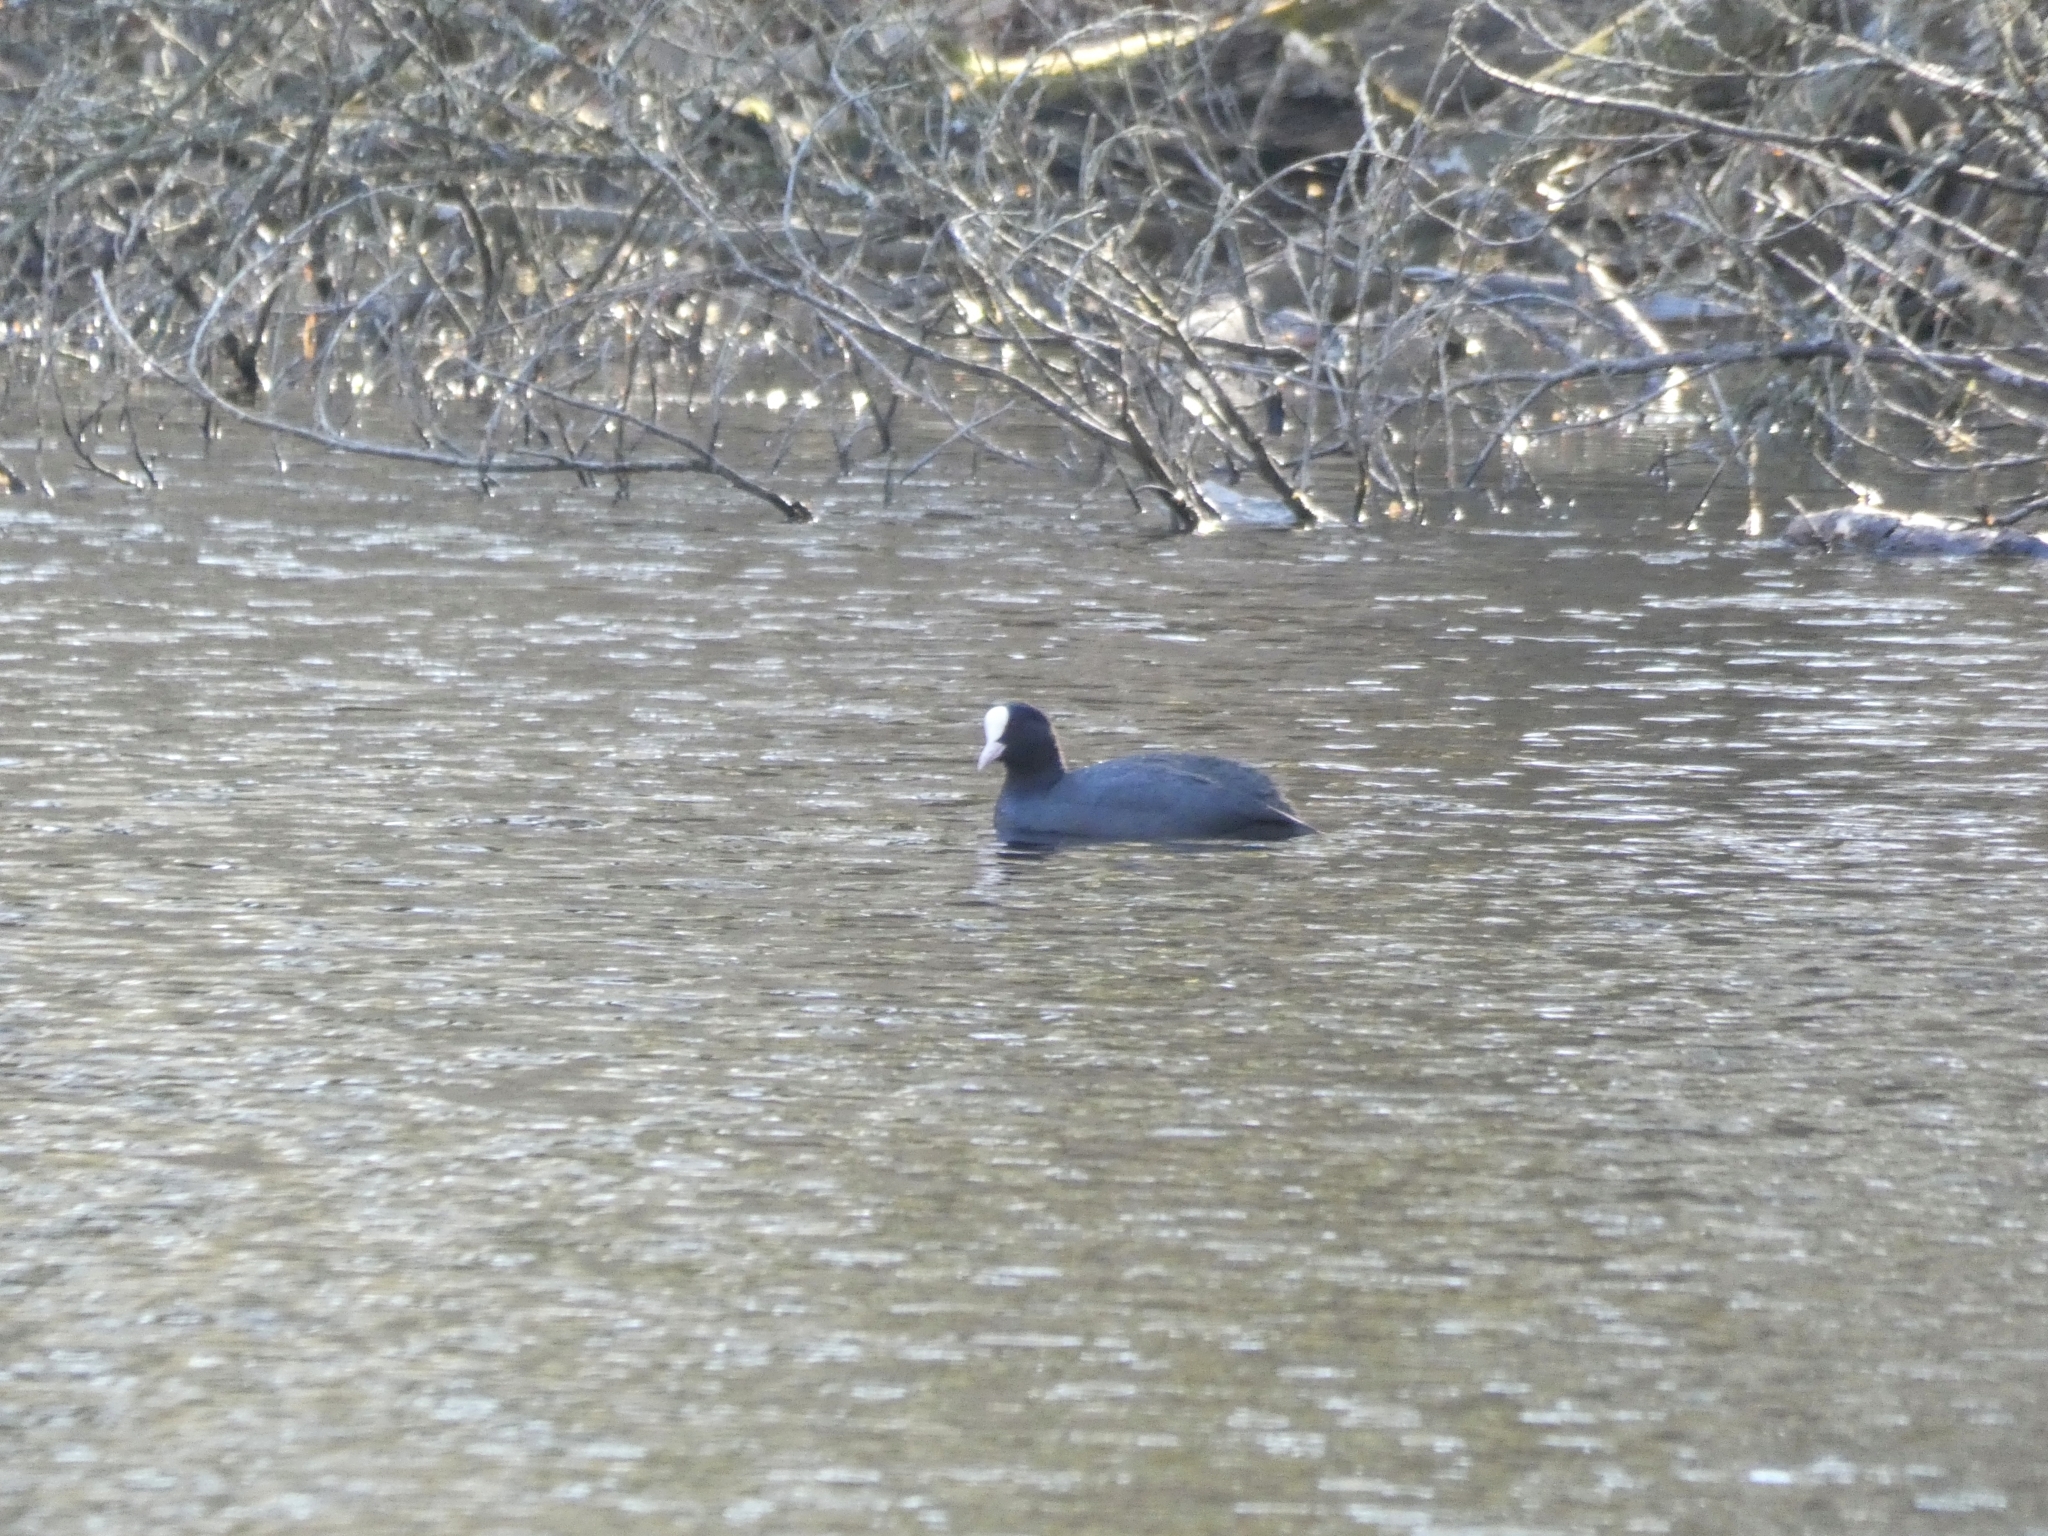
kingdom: Animalia
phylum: Chordata
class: Aves
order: Gruiformes
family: Rallidae
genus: Fulica
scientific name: Fulica atra
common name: Eurasian coot
